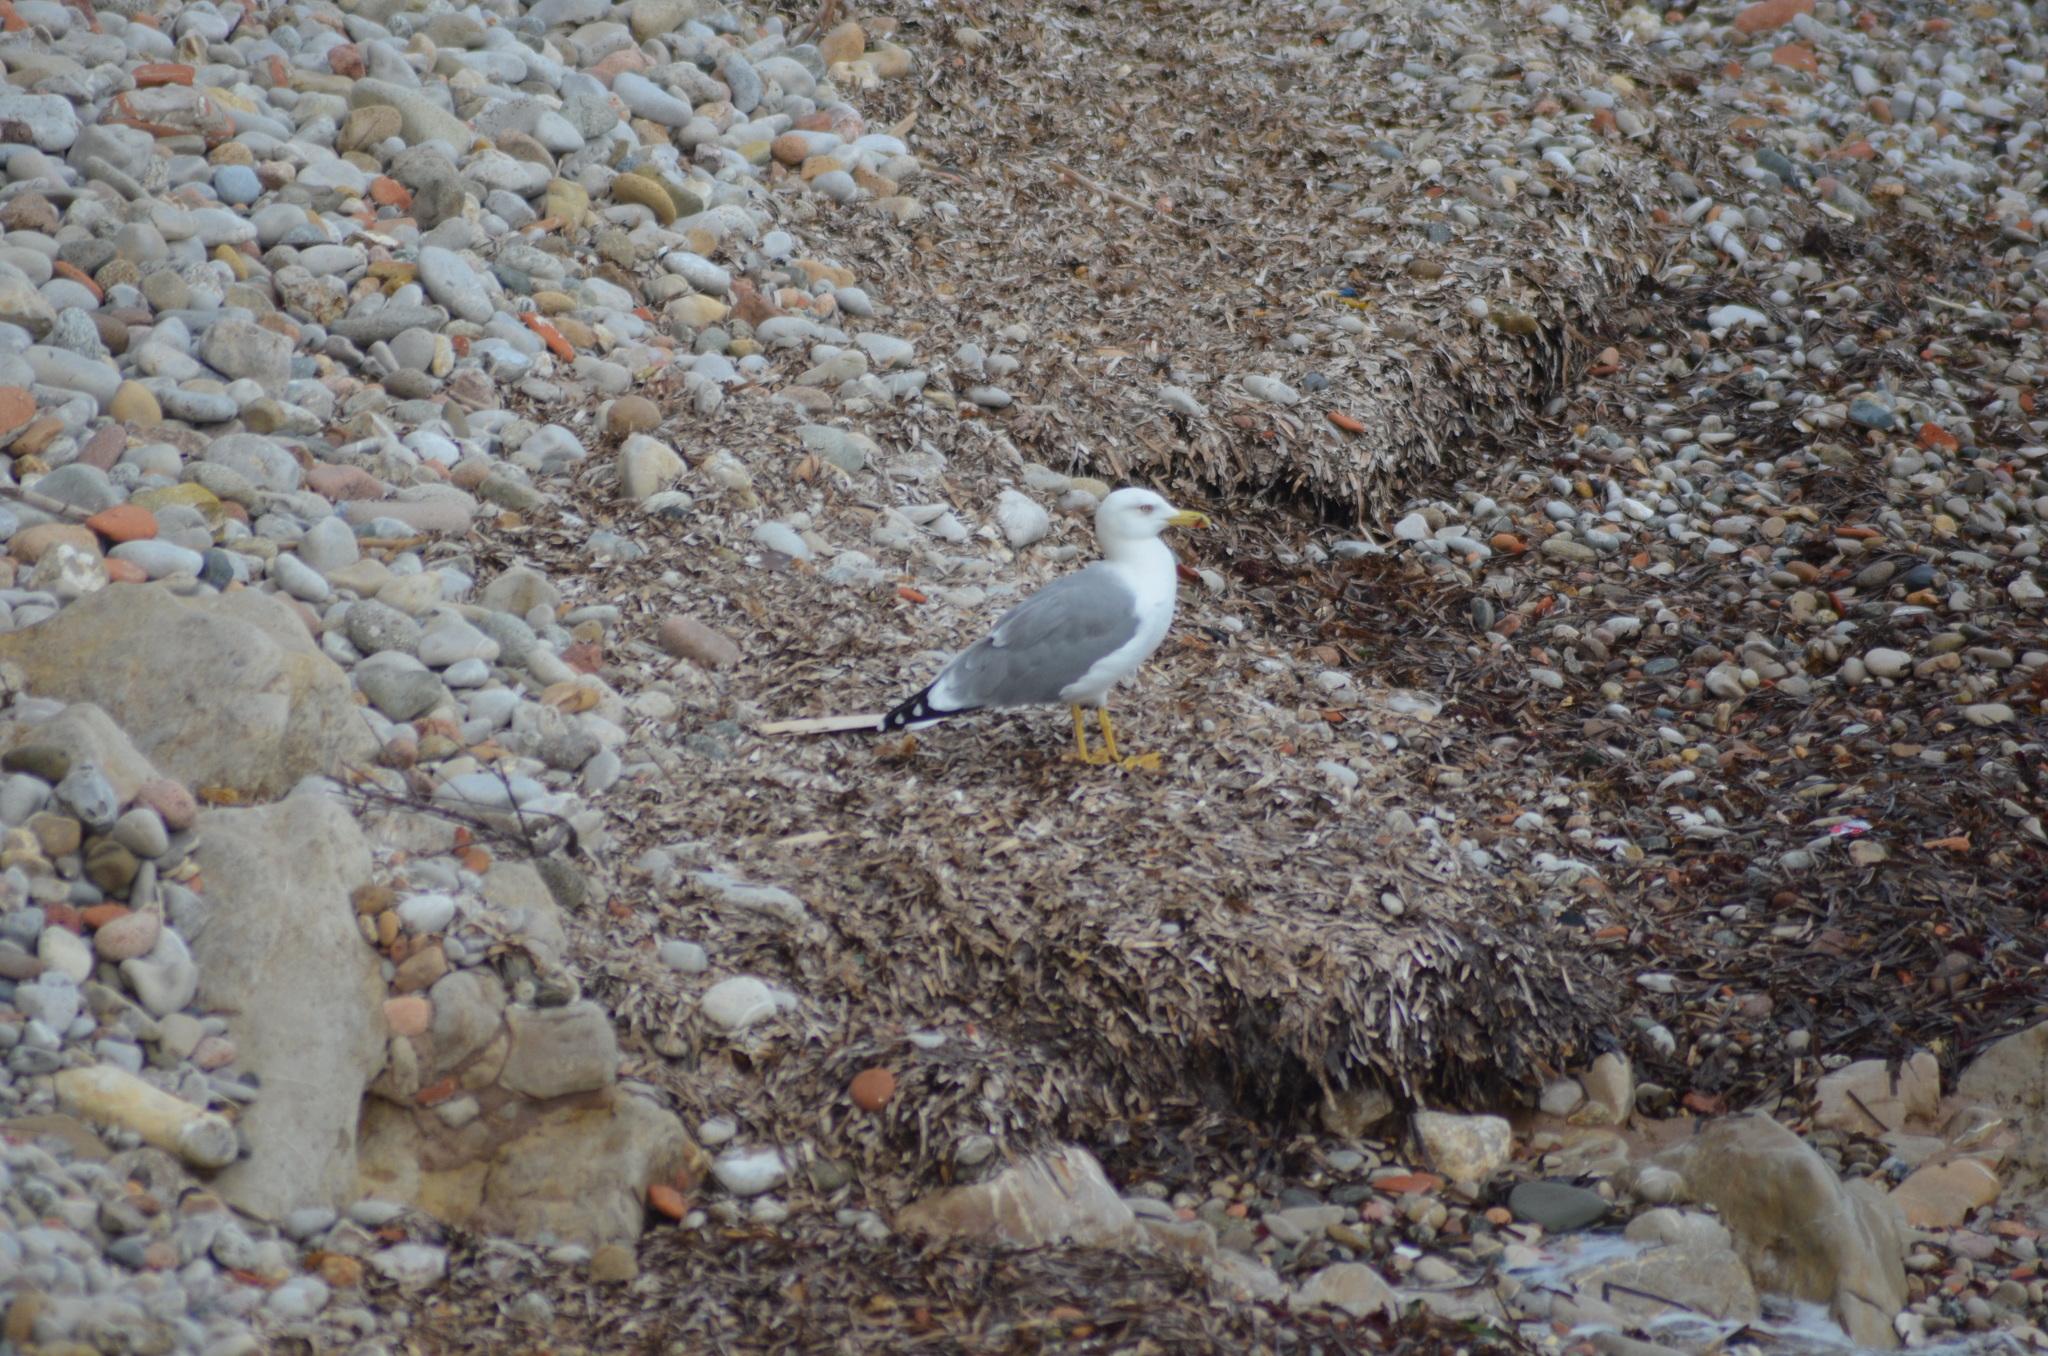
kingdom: Animalia
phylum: Chordata
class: Aves
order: Charadriiformes
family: Laridae
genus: Larus
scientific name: Larus michahellis
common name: Yellow-legged gull
